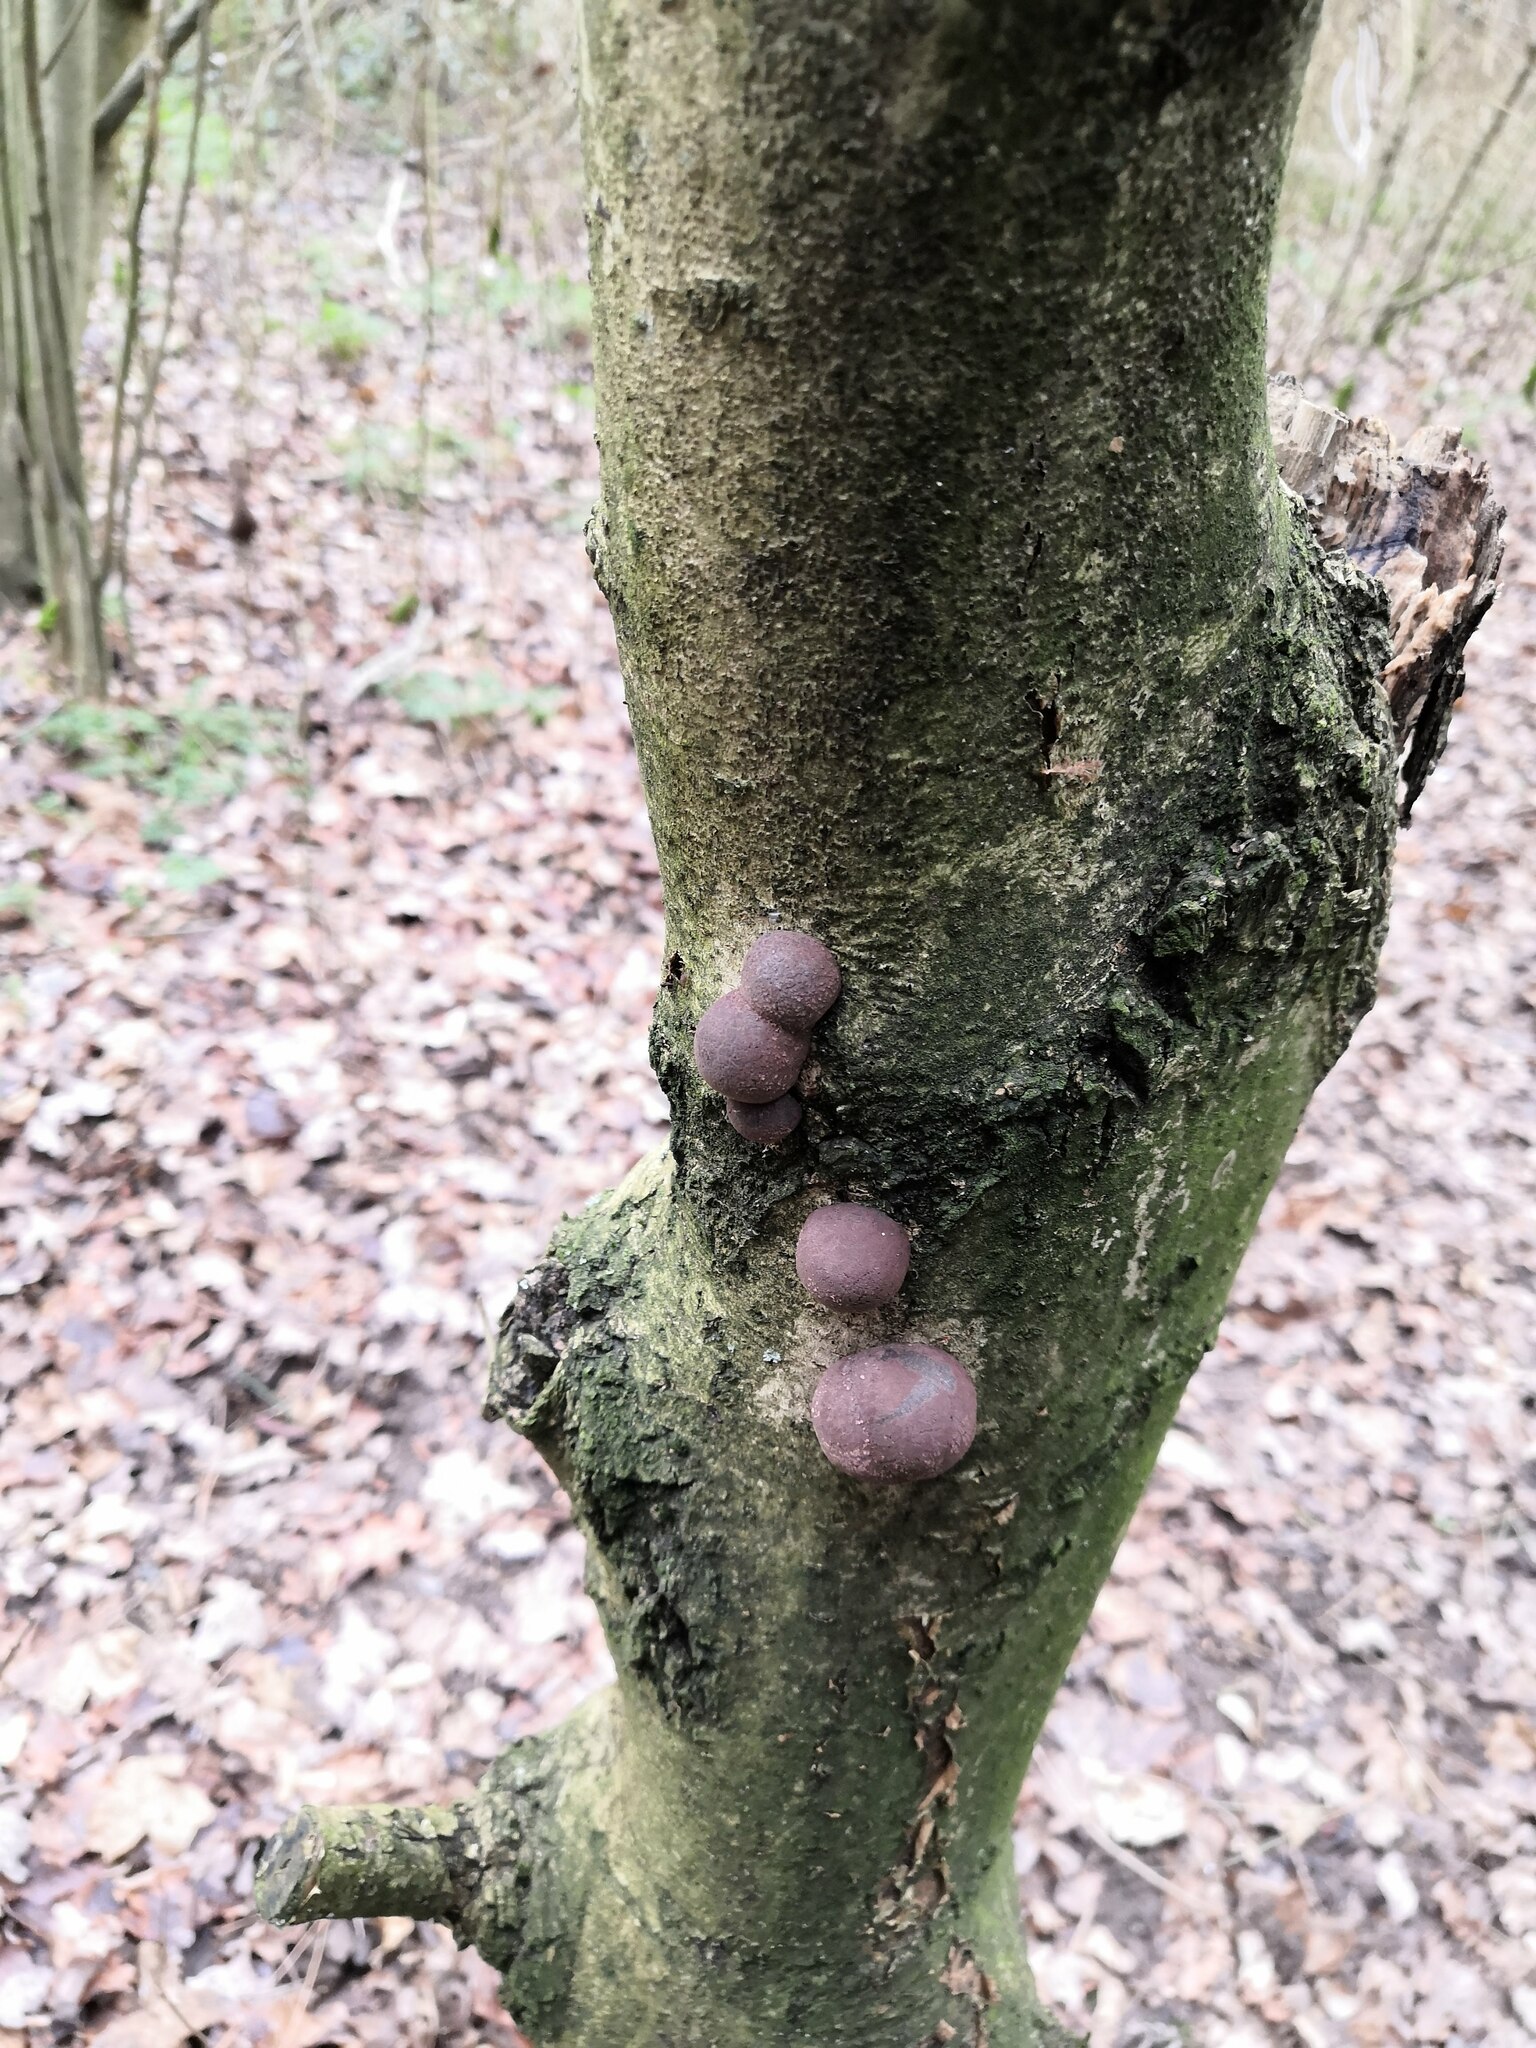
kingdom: Fungi
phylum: Ascomycota
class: Sordariomycetes
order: Xylariales
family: Hypoxylaceae
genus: Daldinia
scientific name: Daldinia concentrica
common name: Cramp balls
